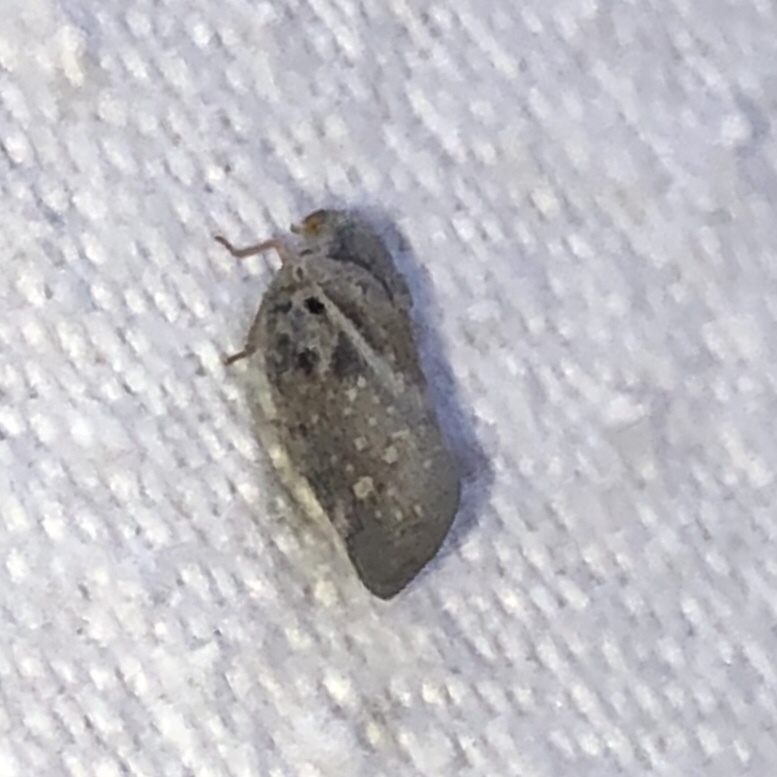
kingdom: Animalia
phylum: Arthropoda
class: Insecta
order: Hemiptera
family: Flatidae
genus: Metcalfa
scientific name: Metcalfa pruinosa
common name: Citrus flatid planthopper
